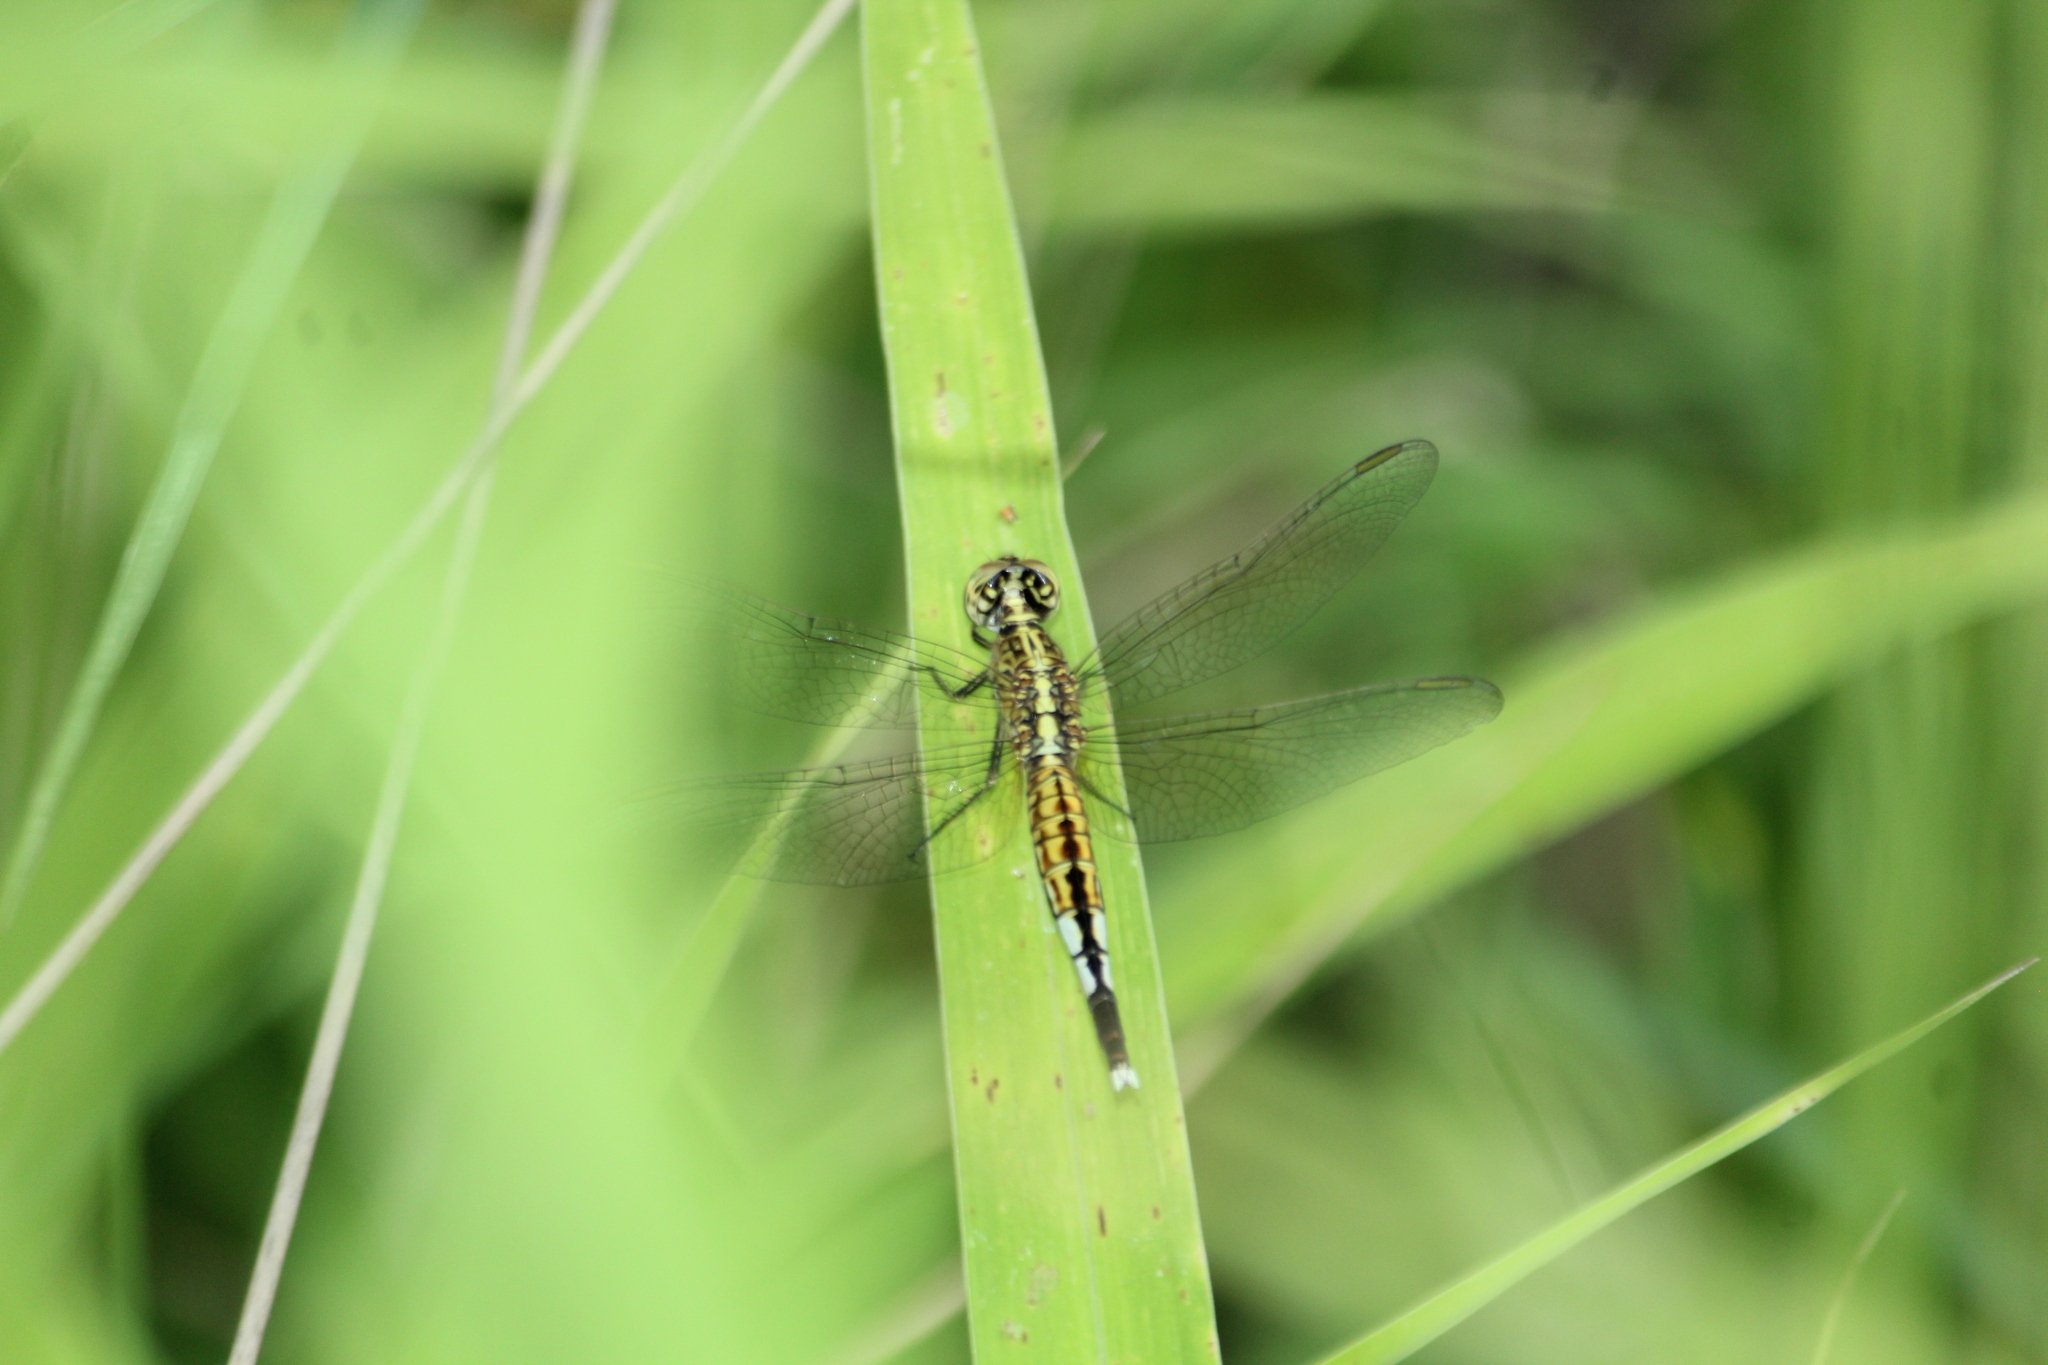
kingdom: Animalia
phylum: Arthropoda
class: Insecta
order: Odonata
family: Libellulidae
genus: Acisoma
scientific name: Acisoma panorpoides
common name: Asian pintail
